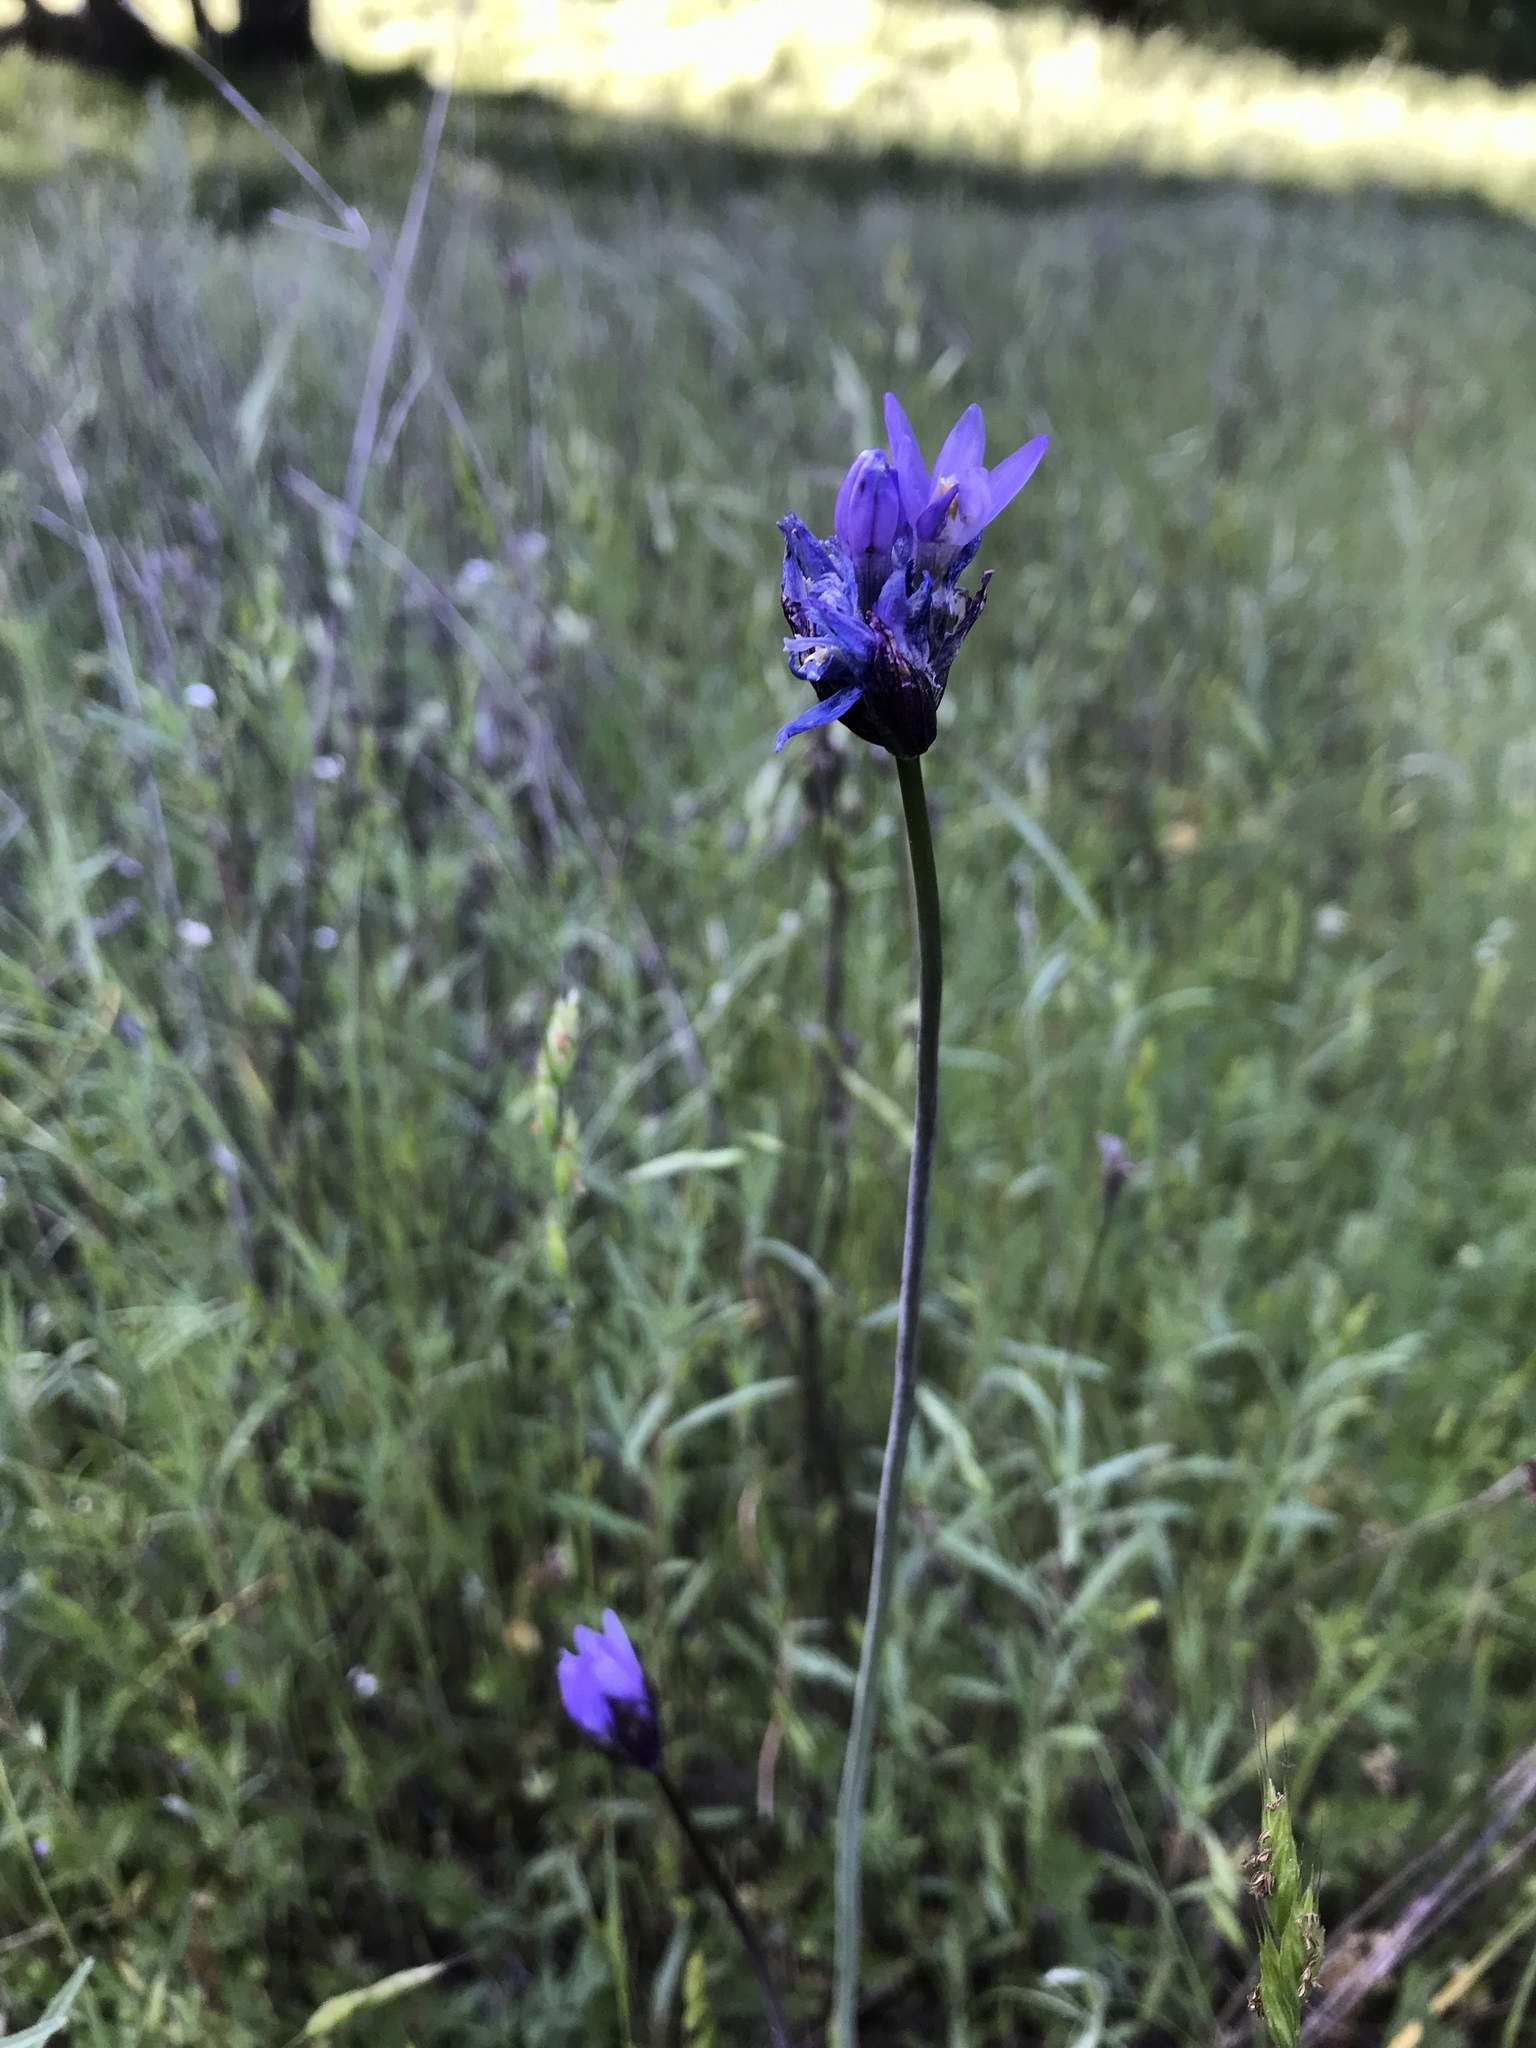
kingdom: Plantae
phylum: Tracheophyta
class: Liliopsida
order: Asparagales
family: Asparagaceae
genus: Dipterostemon
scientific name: Dipterostemon capitatus
